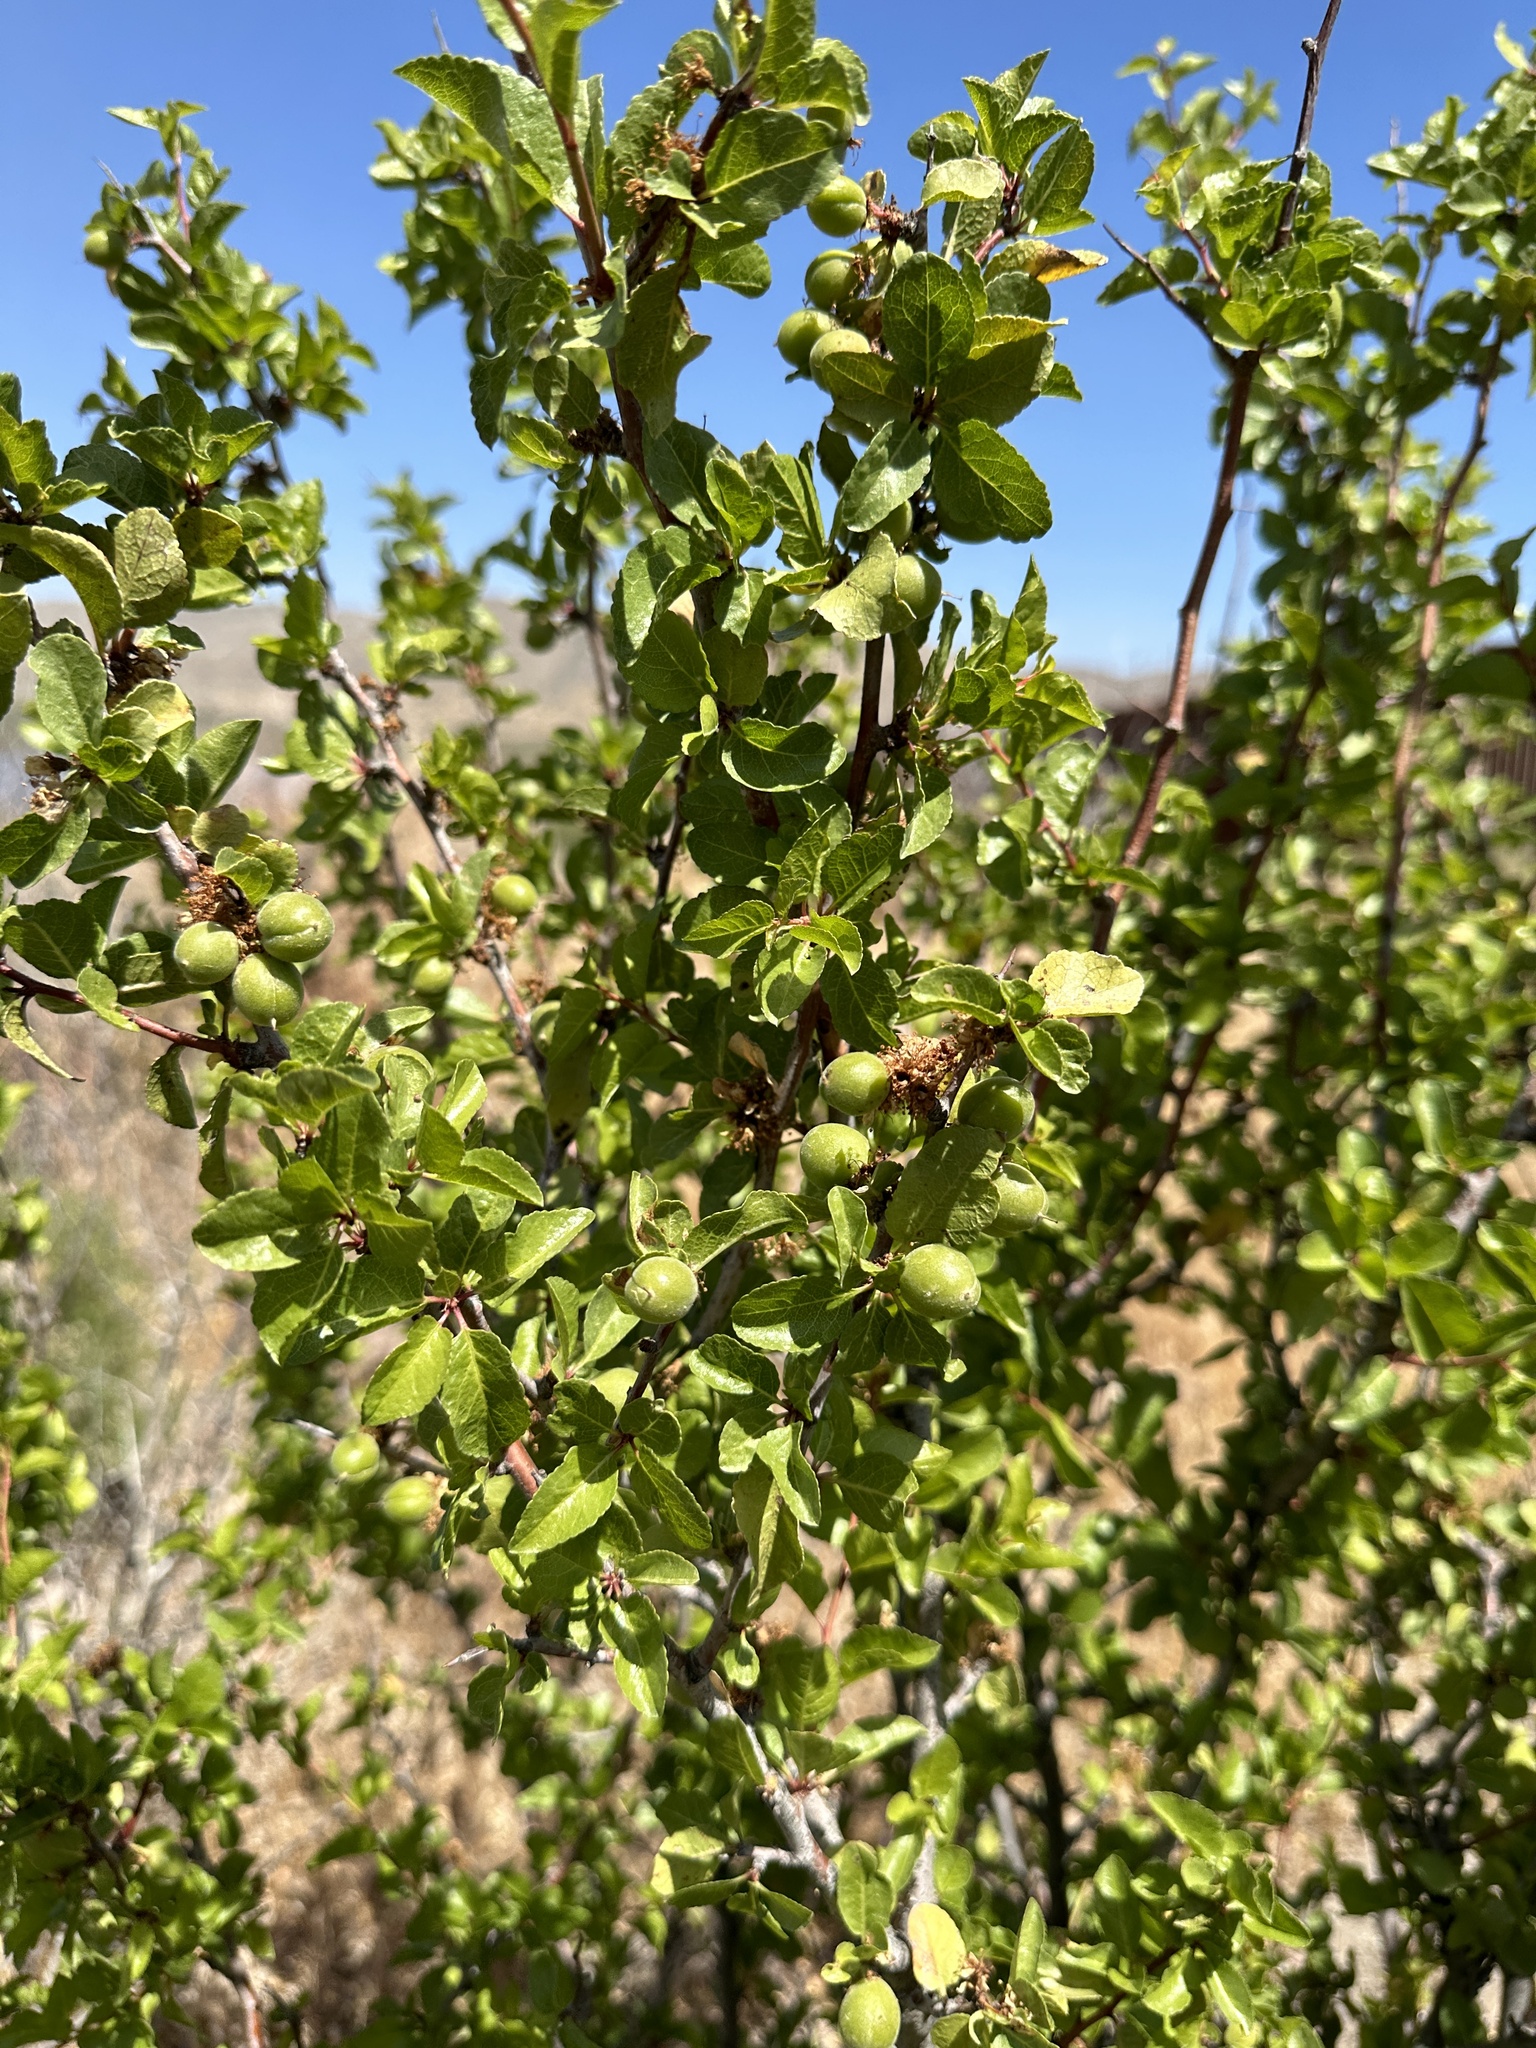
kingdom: Plantae
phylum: Tracheophyta
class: Magnoliopsida
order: Rosales
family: Rosaceae
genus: Prunus
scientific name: Prunus fremontii
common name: Desert apricot
